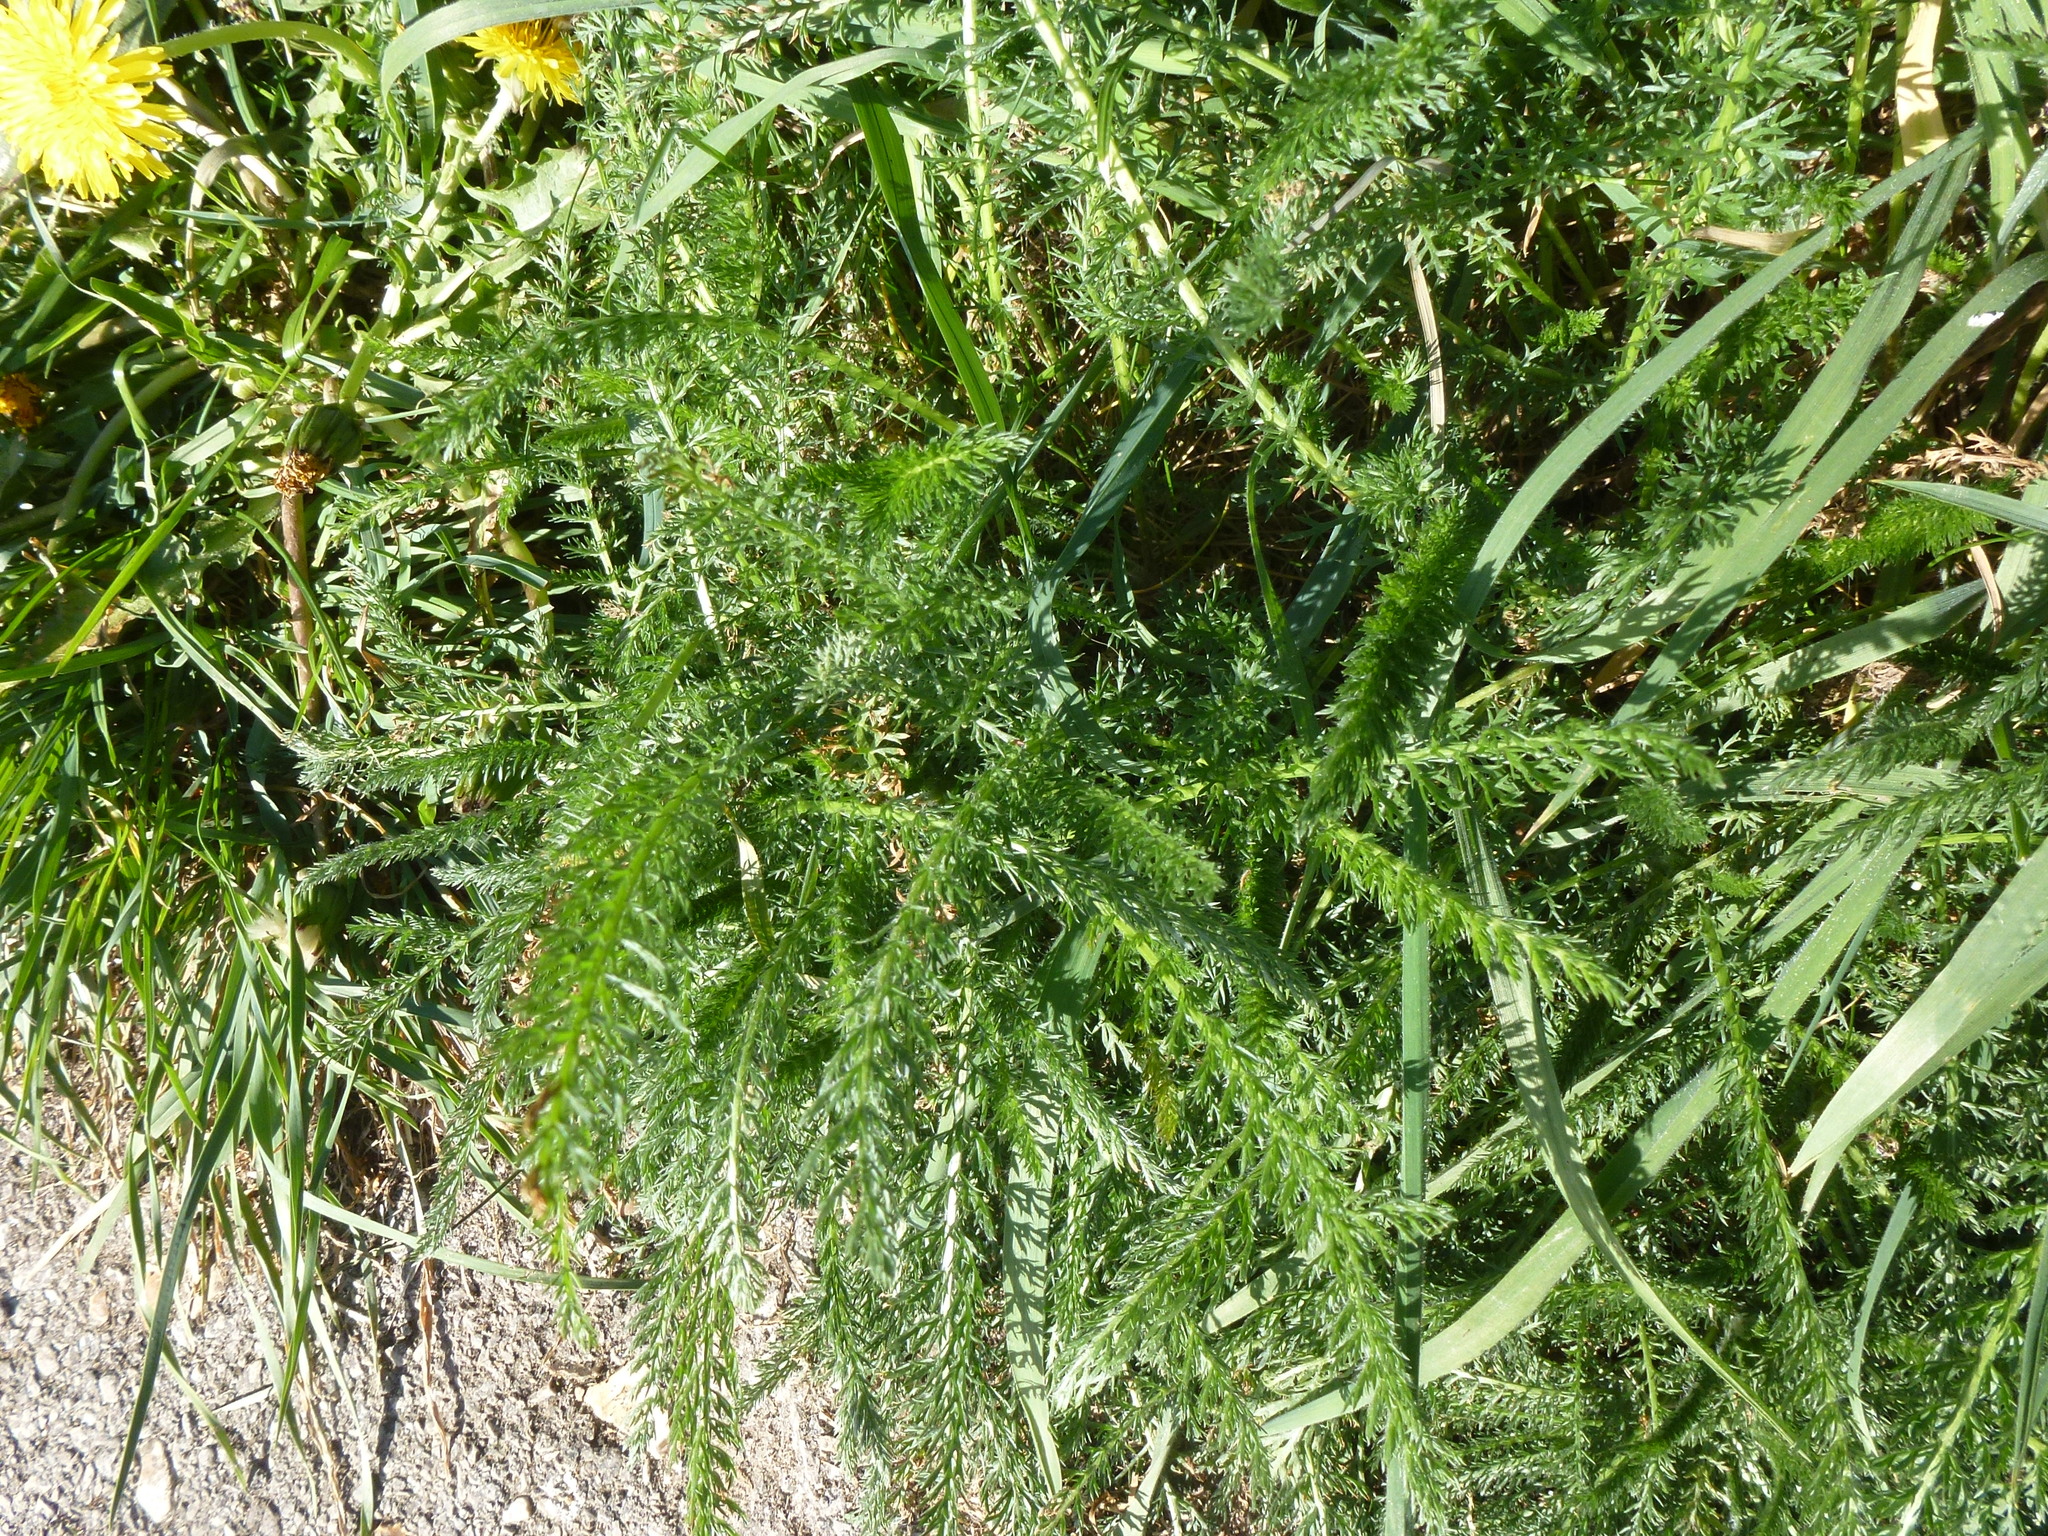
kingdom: Plantae
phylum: Tracheophyta
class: Magnoliopsida
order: Asterales
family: Asteraceae
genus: Achillea
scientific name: Achillea millefolium
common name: Yarrow
